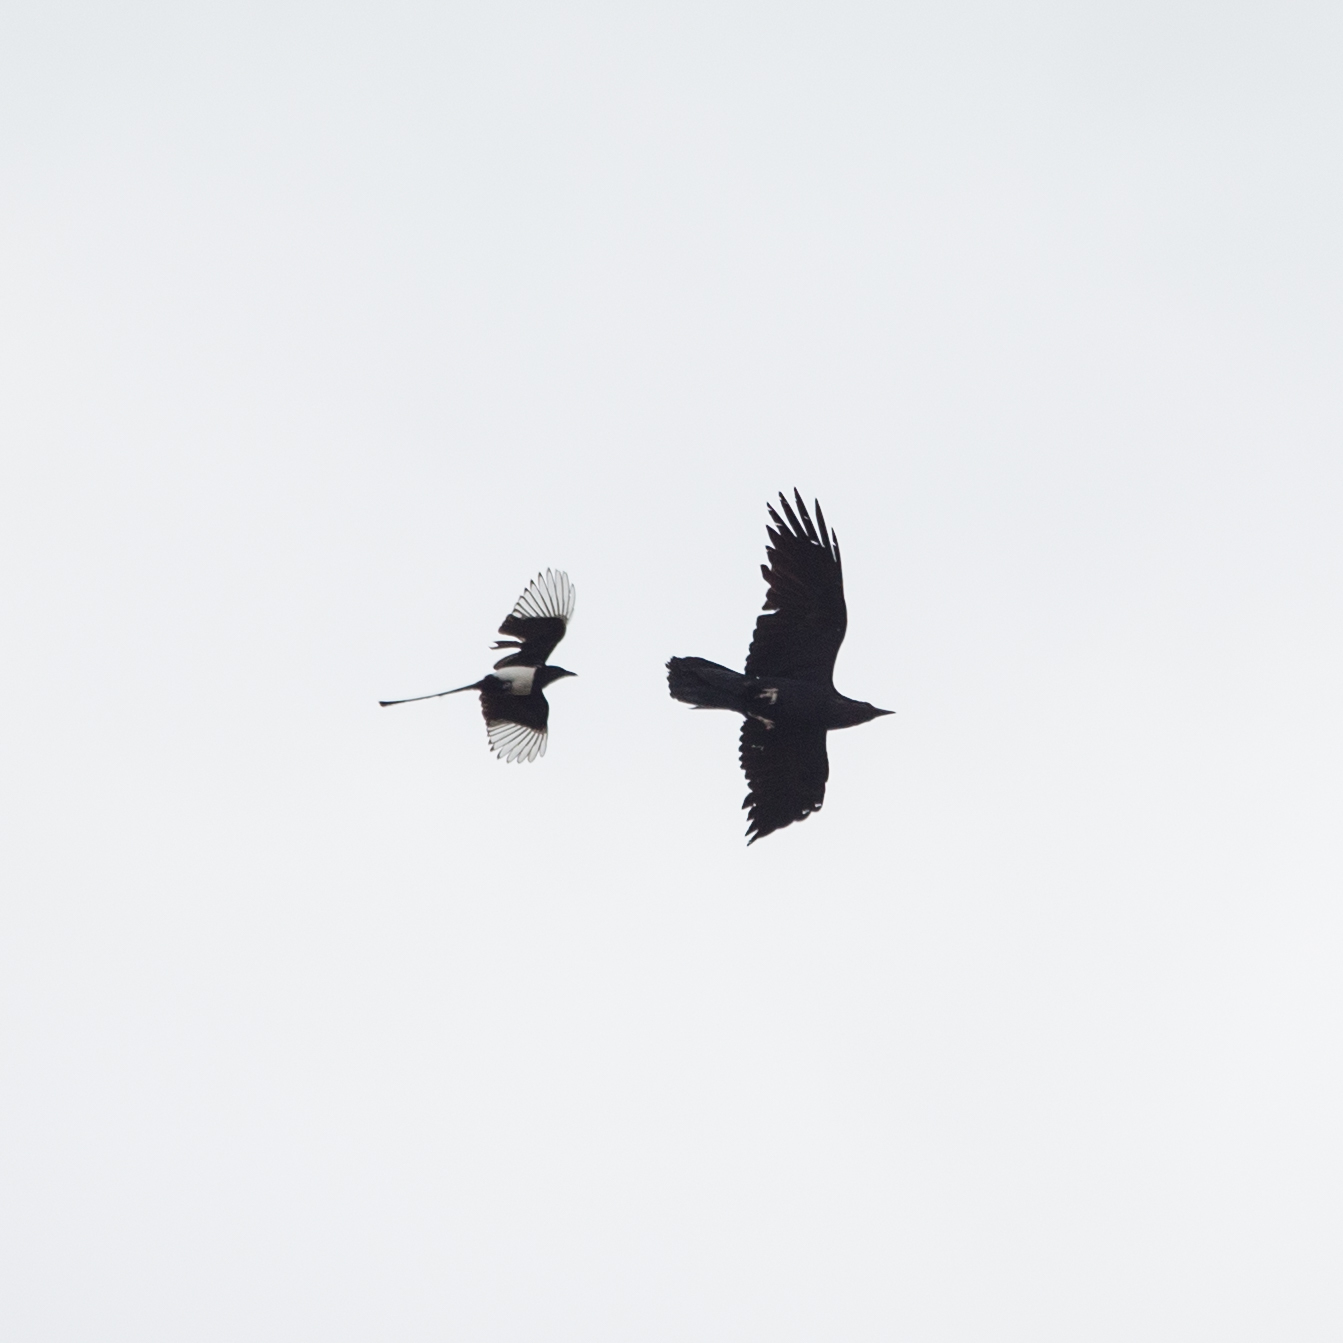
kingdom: Animalia
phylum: Chordata
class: Aves
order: Passeriformes
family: Corvidae
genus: Pica
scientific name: Pica pica
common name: Eurasian magpie
